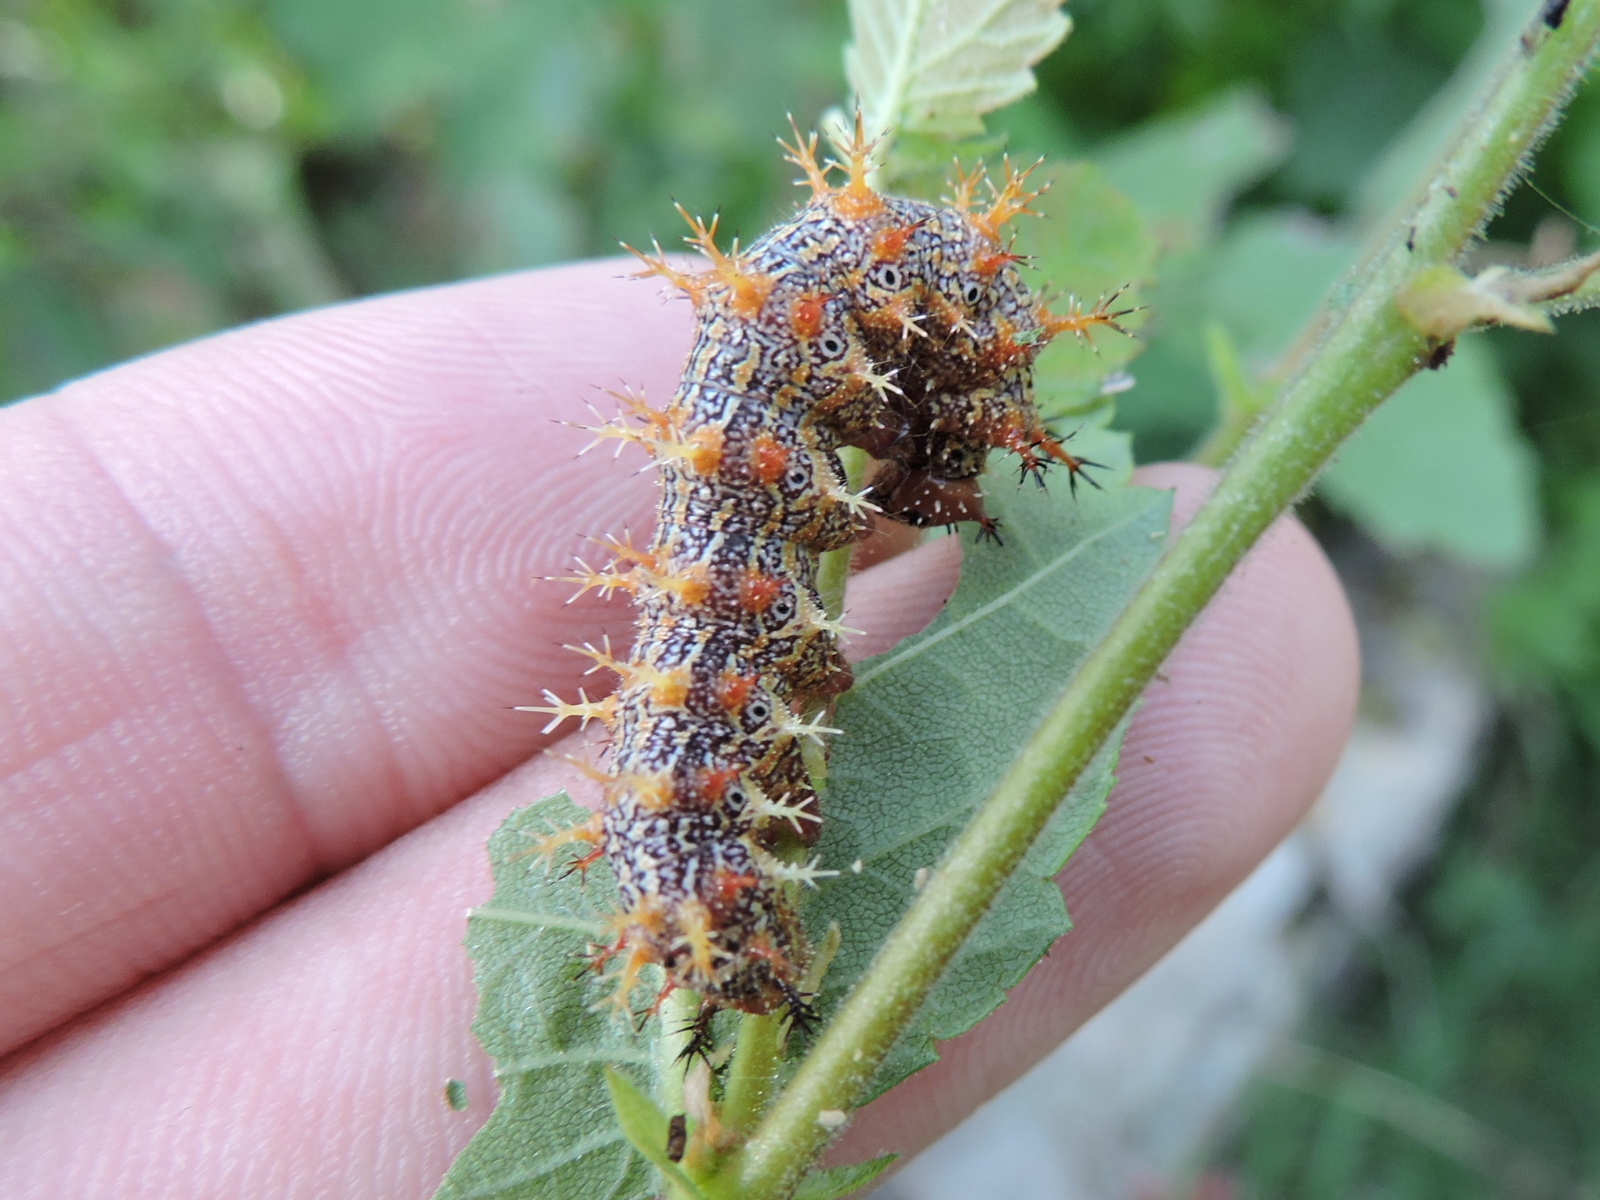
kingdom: Animalia
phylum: Arthropoda
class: Insecta
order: Lepidoptera
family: Nymphalidae
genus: Polygonia
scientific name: Polygonia interrogationis
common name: Question mark
